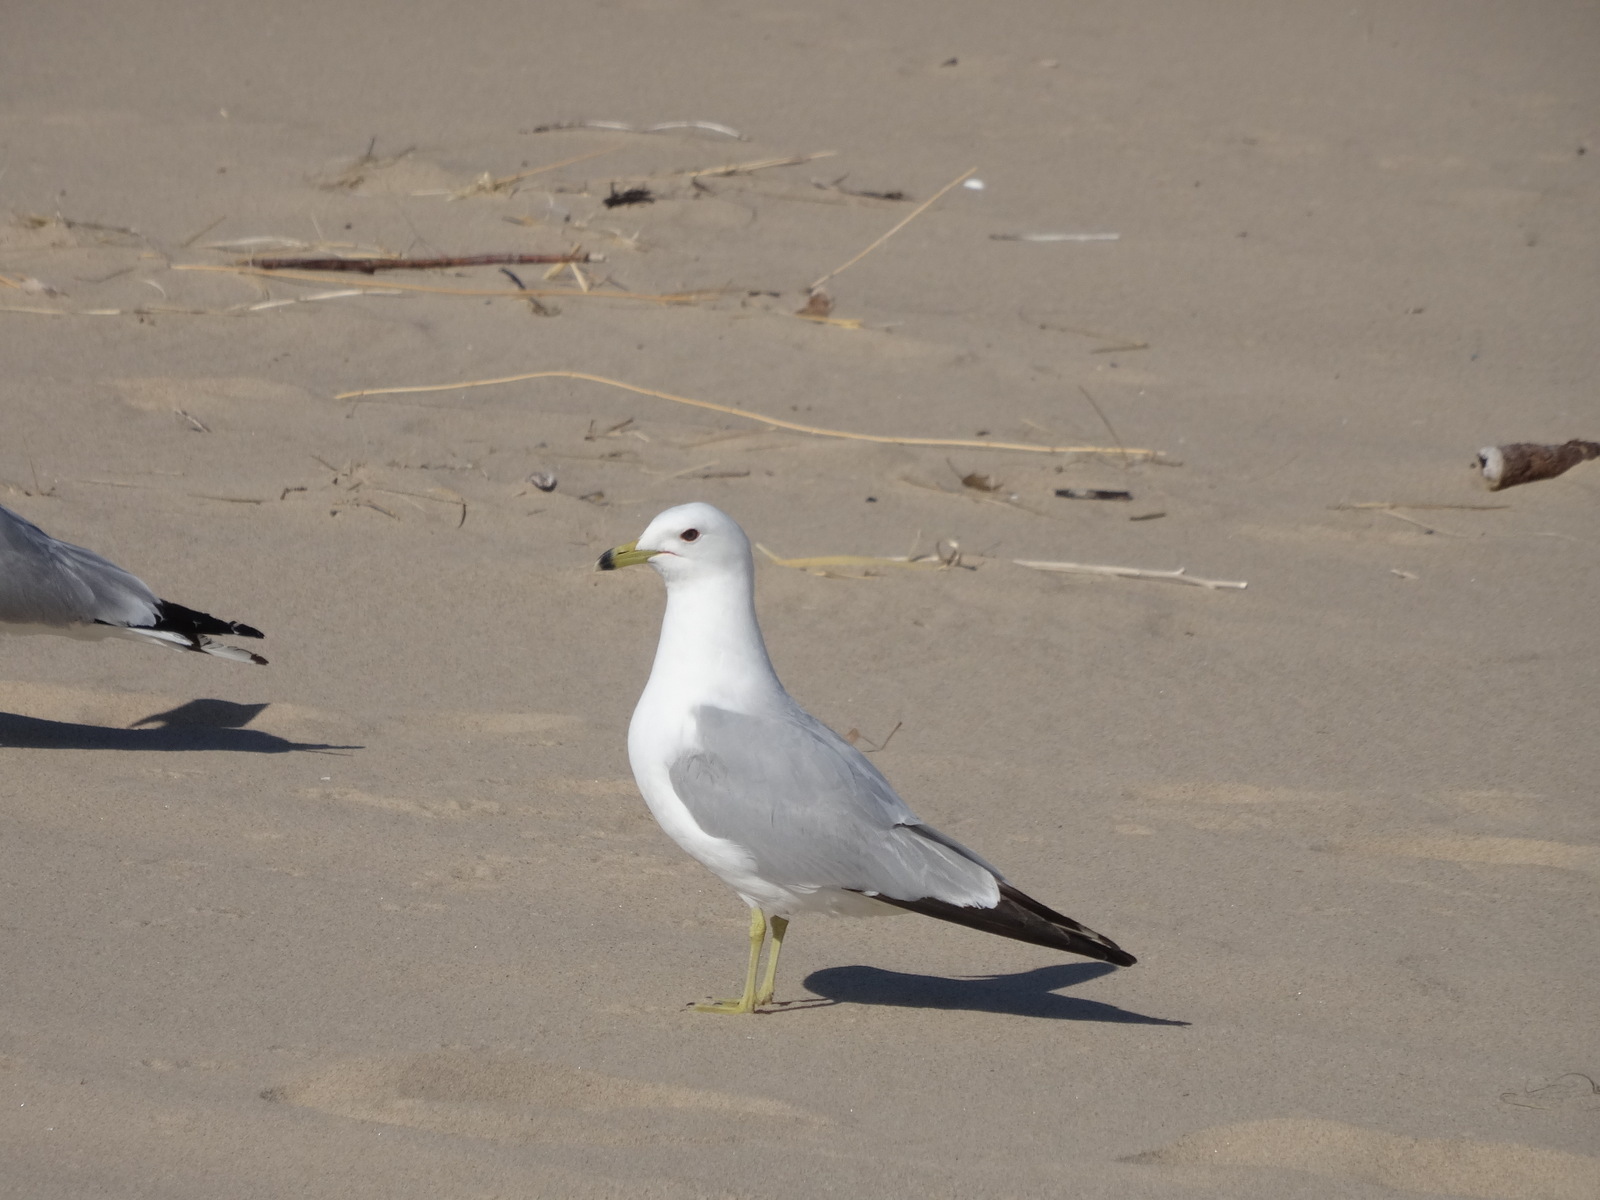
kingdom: Animalia
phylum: Chordata
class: Aves
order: Charadriiformes
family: Laridae
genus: Larus
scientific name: Larus delawarensis
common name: Ring-billed gull
